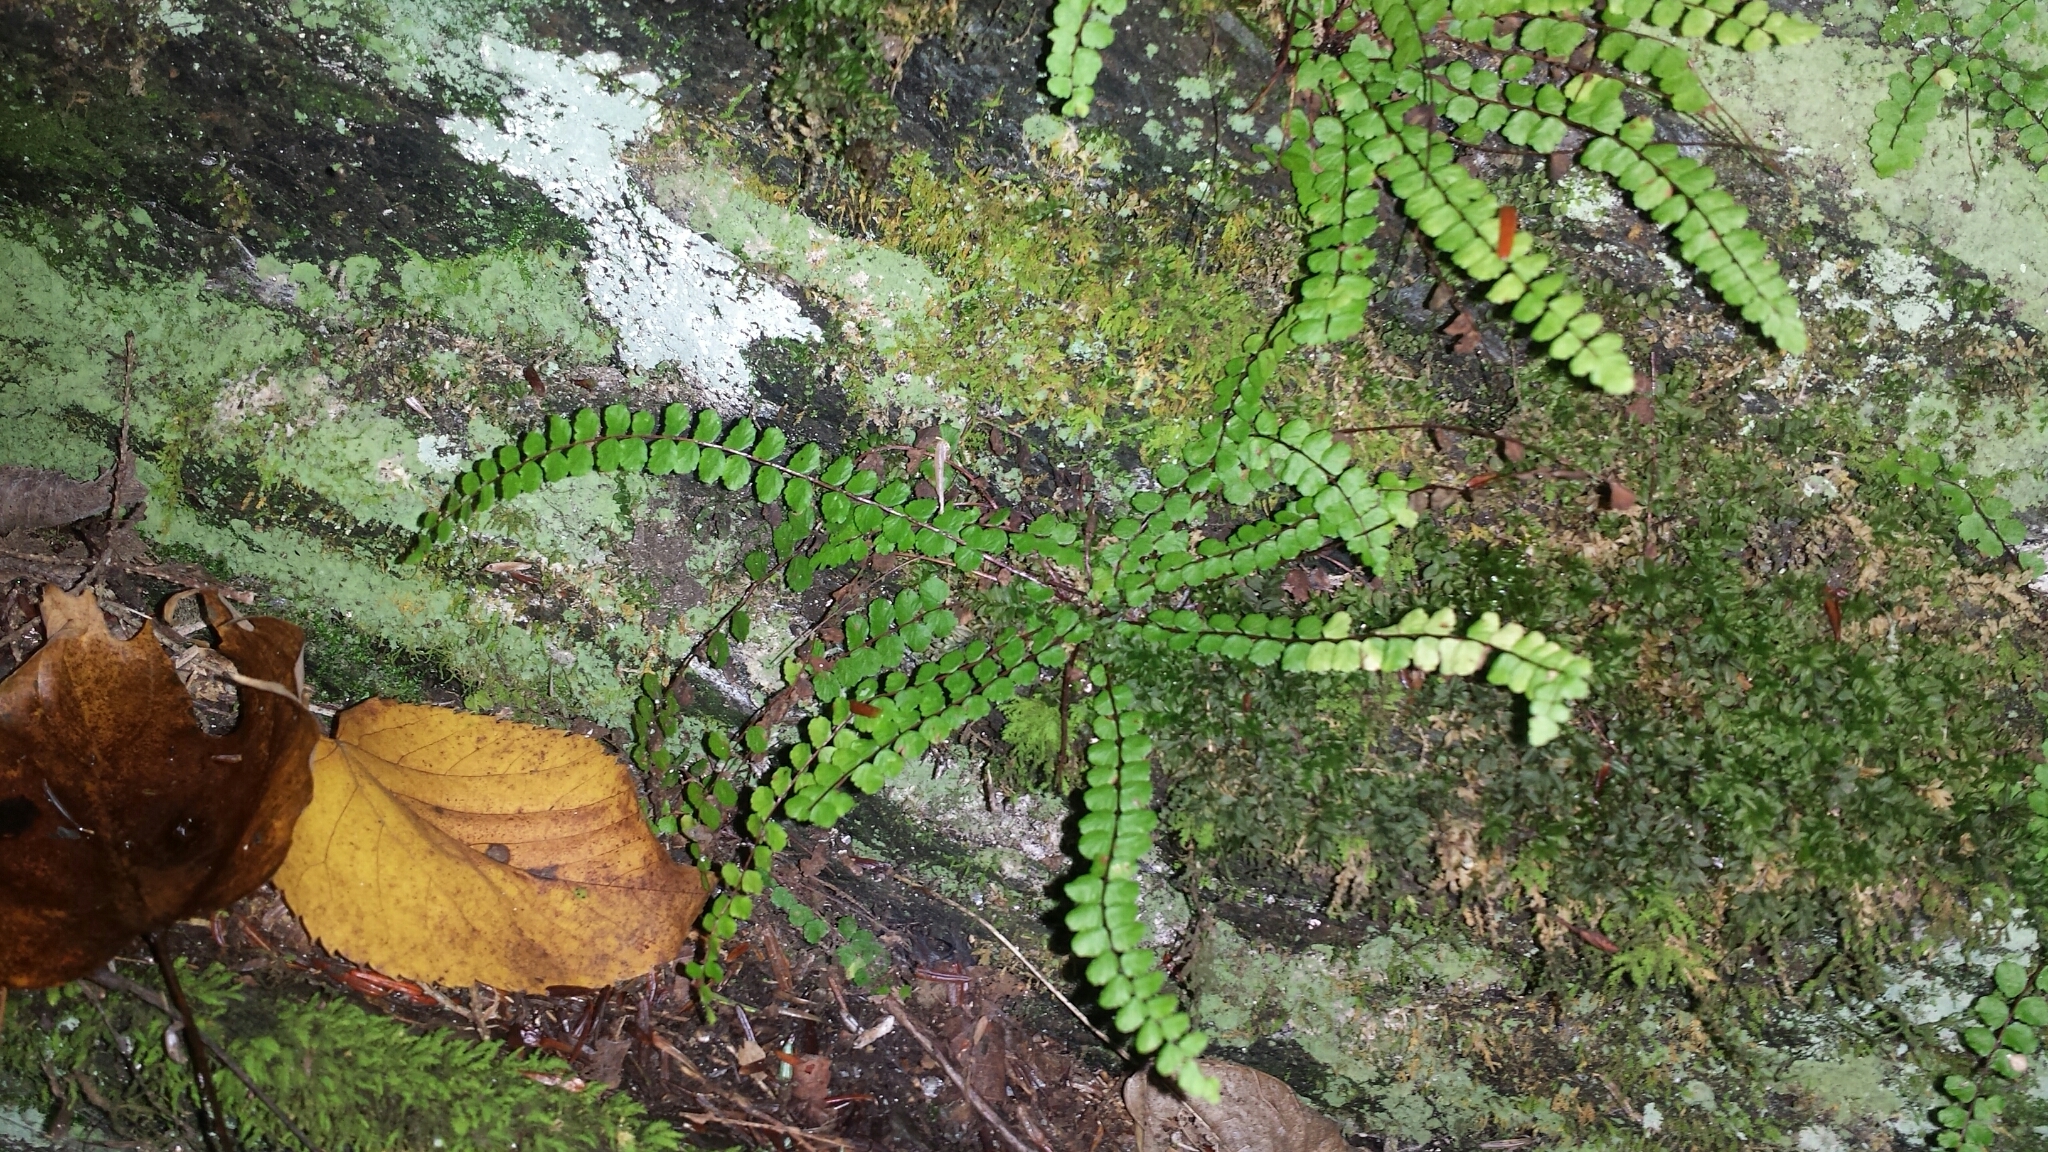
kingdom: Plantae
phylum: Tracheophyta
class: Polypodiopsida
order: Polypodiales
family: Aspleniaceae
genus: Asplenium
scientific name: Asplenium trichomanes
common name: Maidenhair spleenwort
